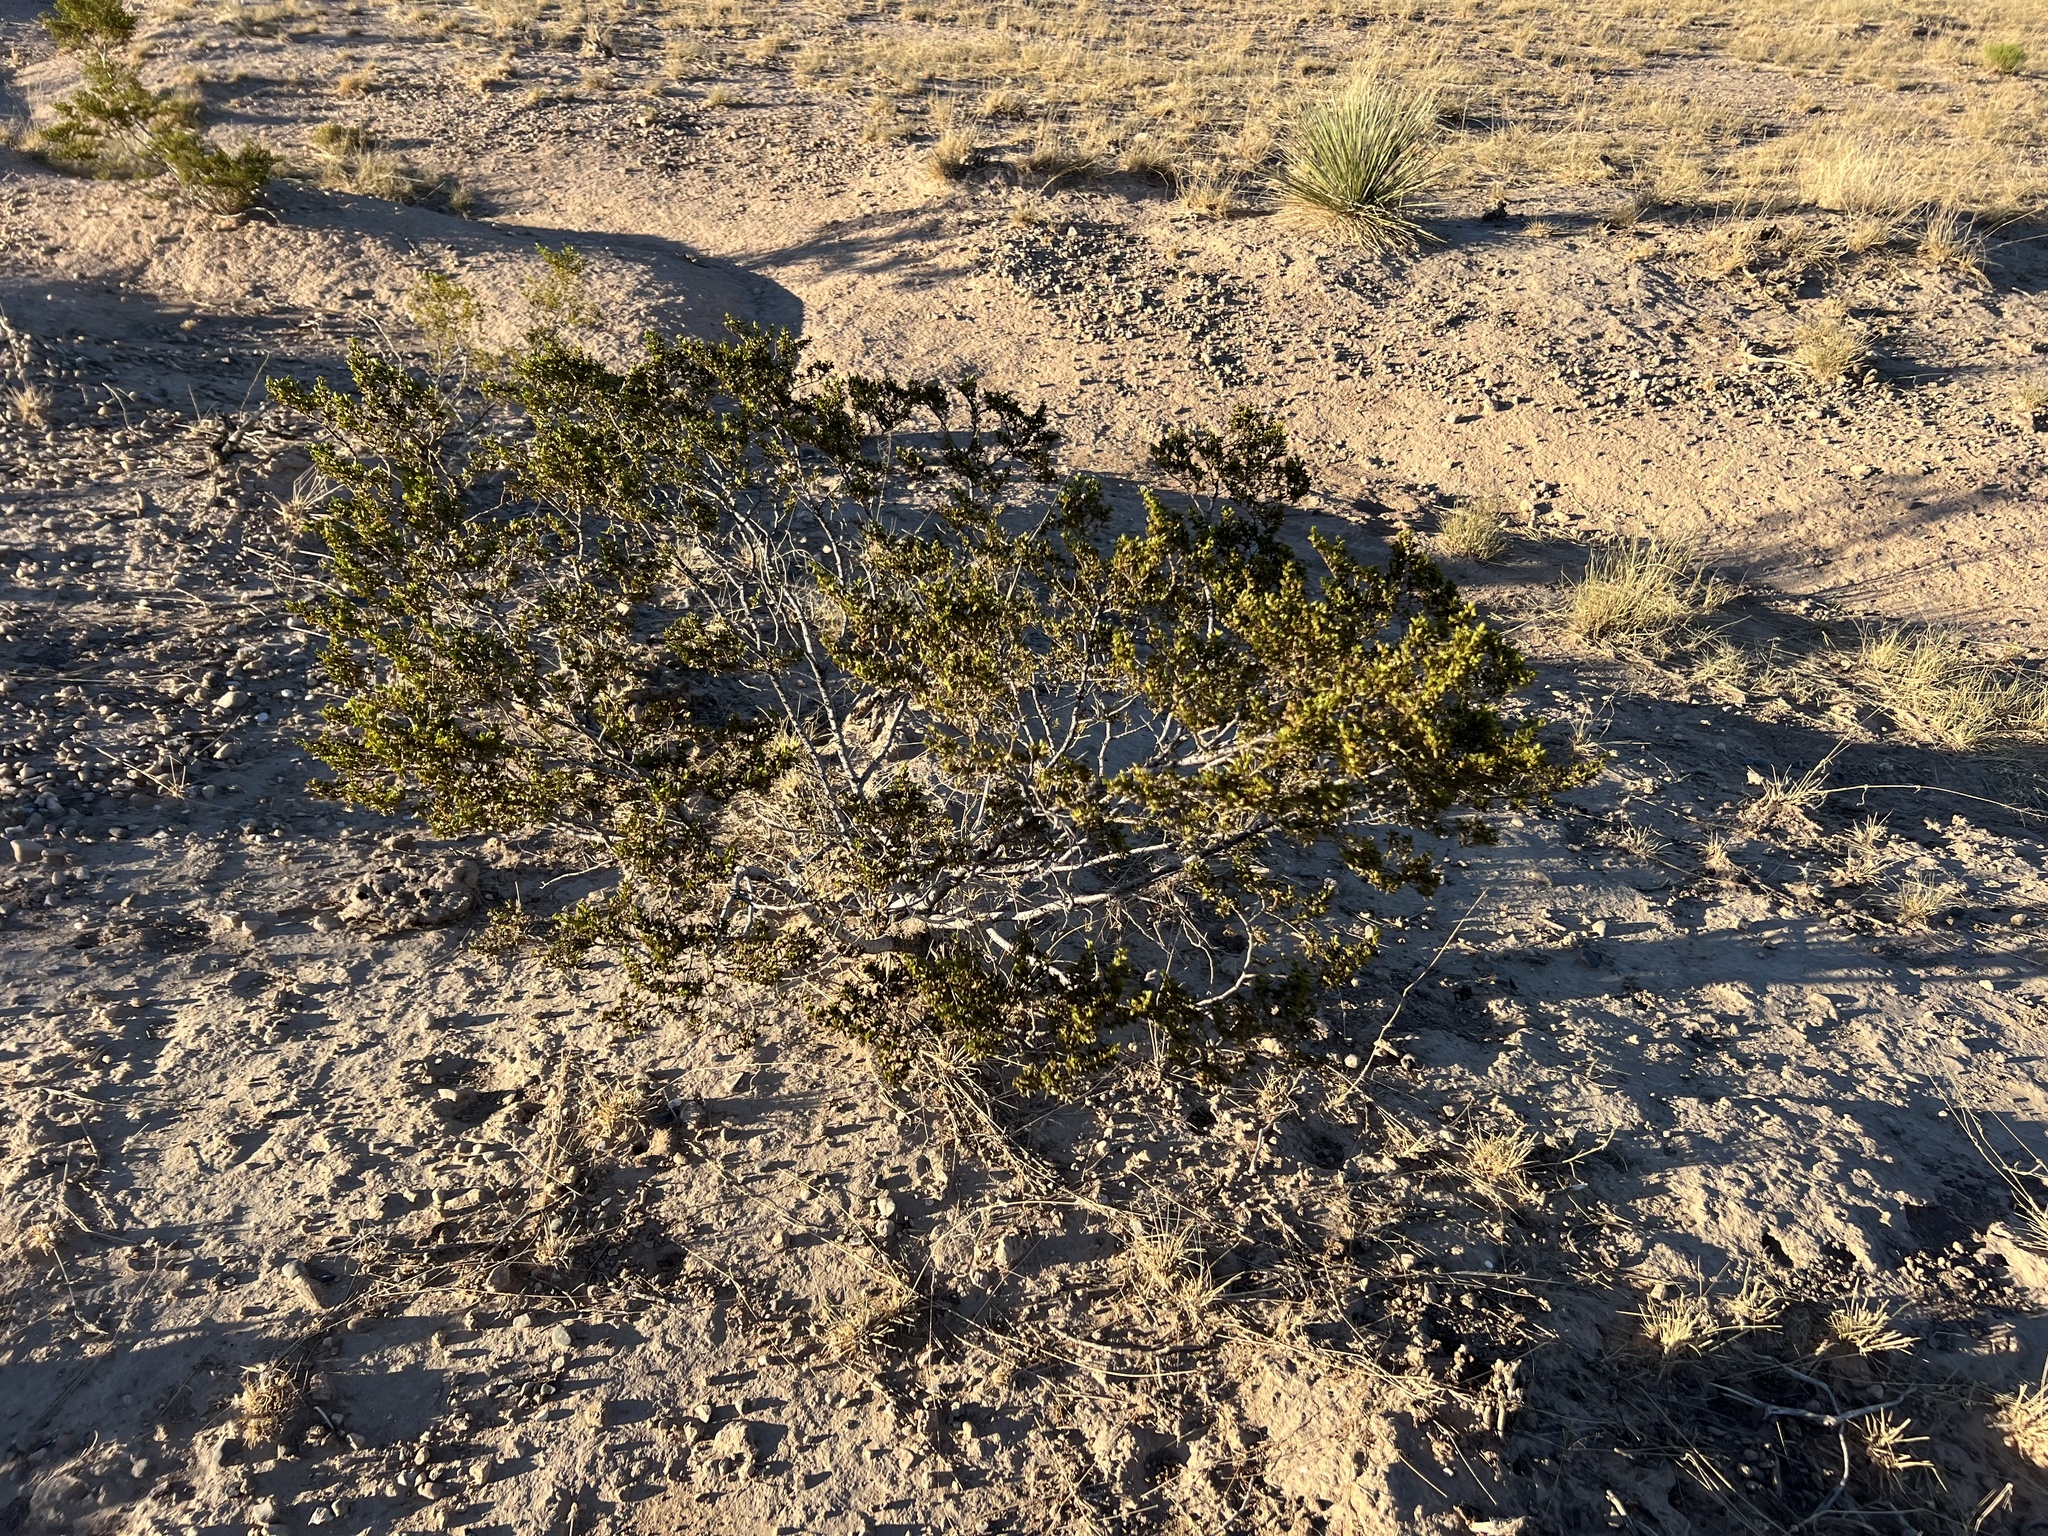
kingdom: Plantae
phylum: Tracheophyta
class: Magnoliopsida
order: Zygophyllales
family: Zygophyllaceae
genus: Larrea
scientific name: Larrea tridentata
